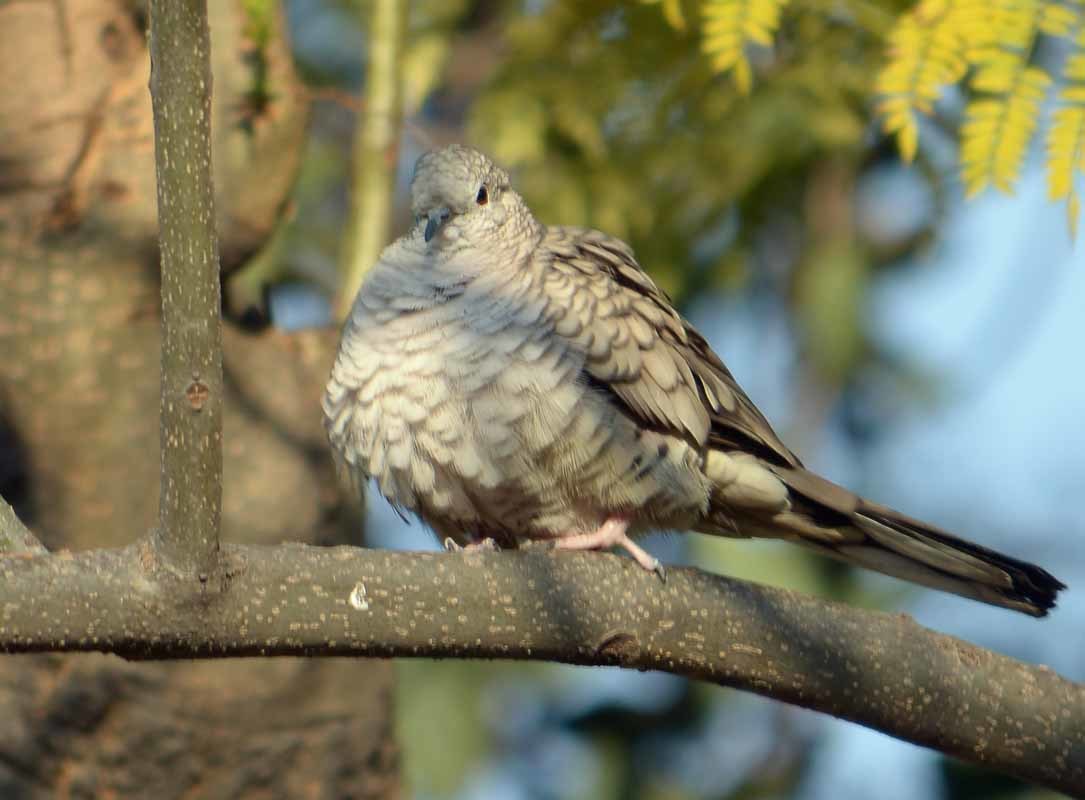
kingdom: Animalia
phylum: Chordata
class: Aves
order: Columbiformes
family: Columbidae
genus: Columbina
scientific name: Columbina inca
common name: Inca dove
